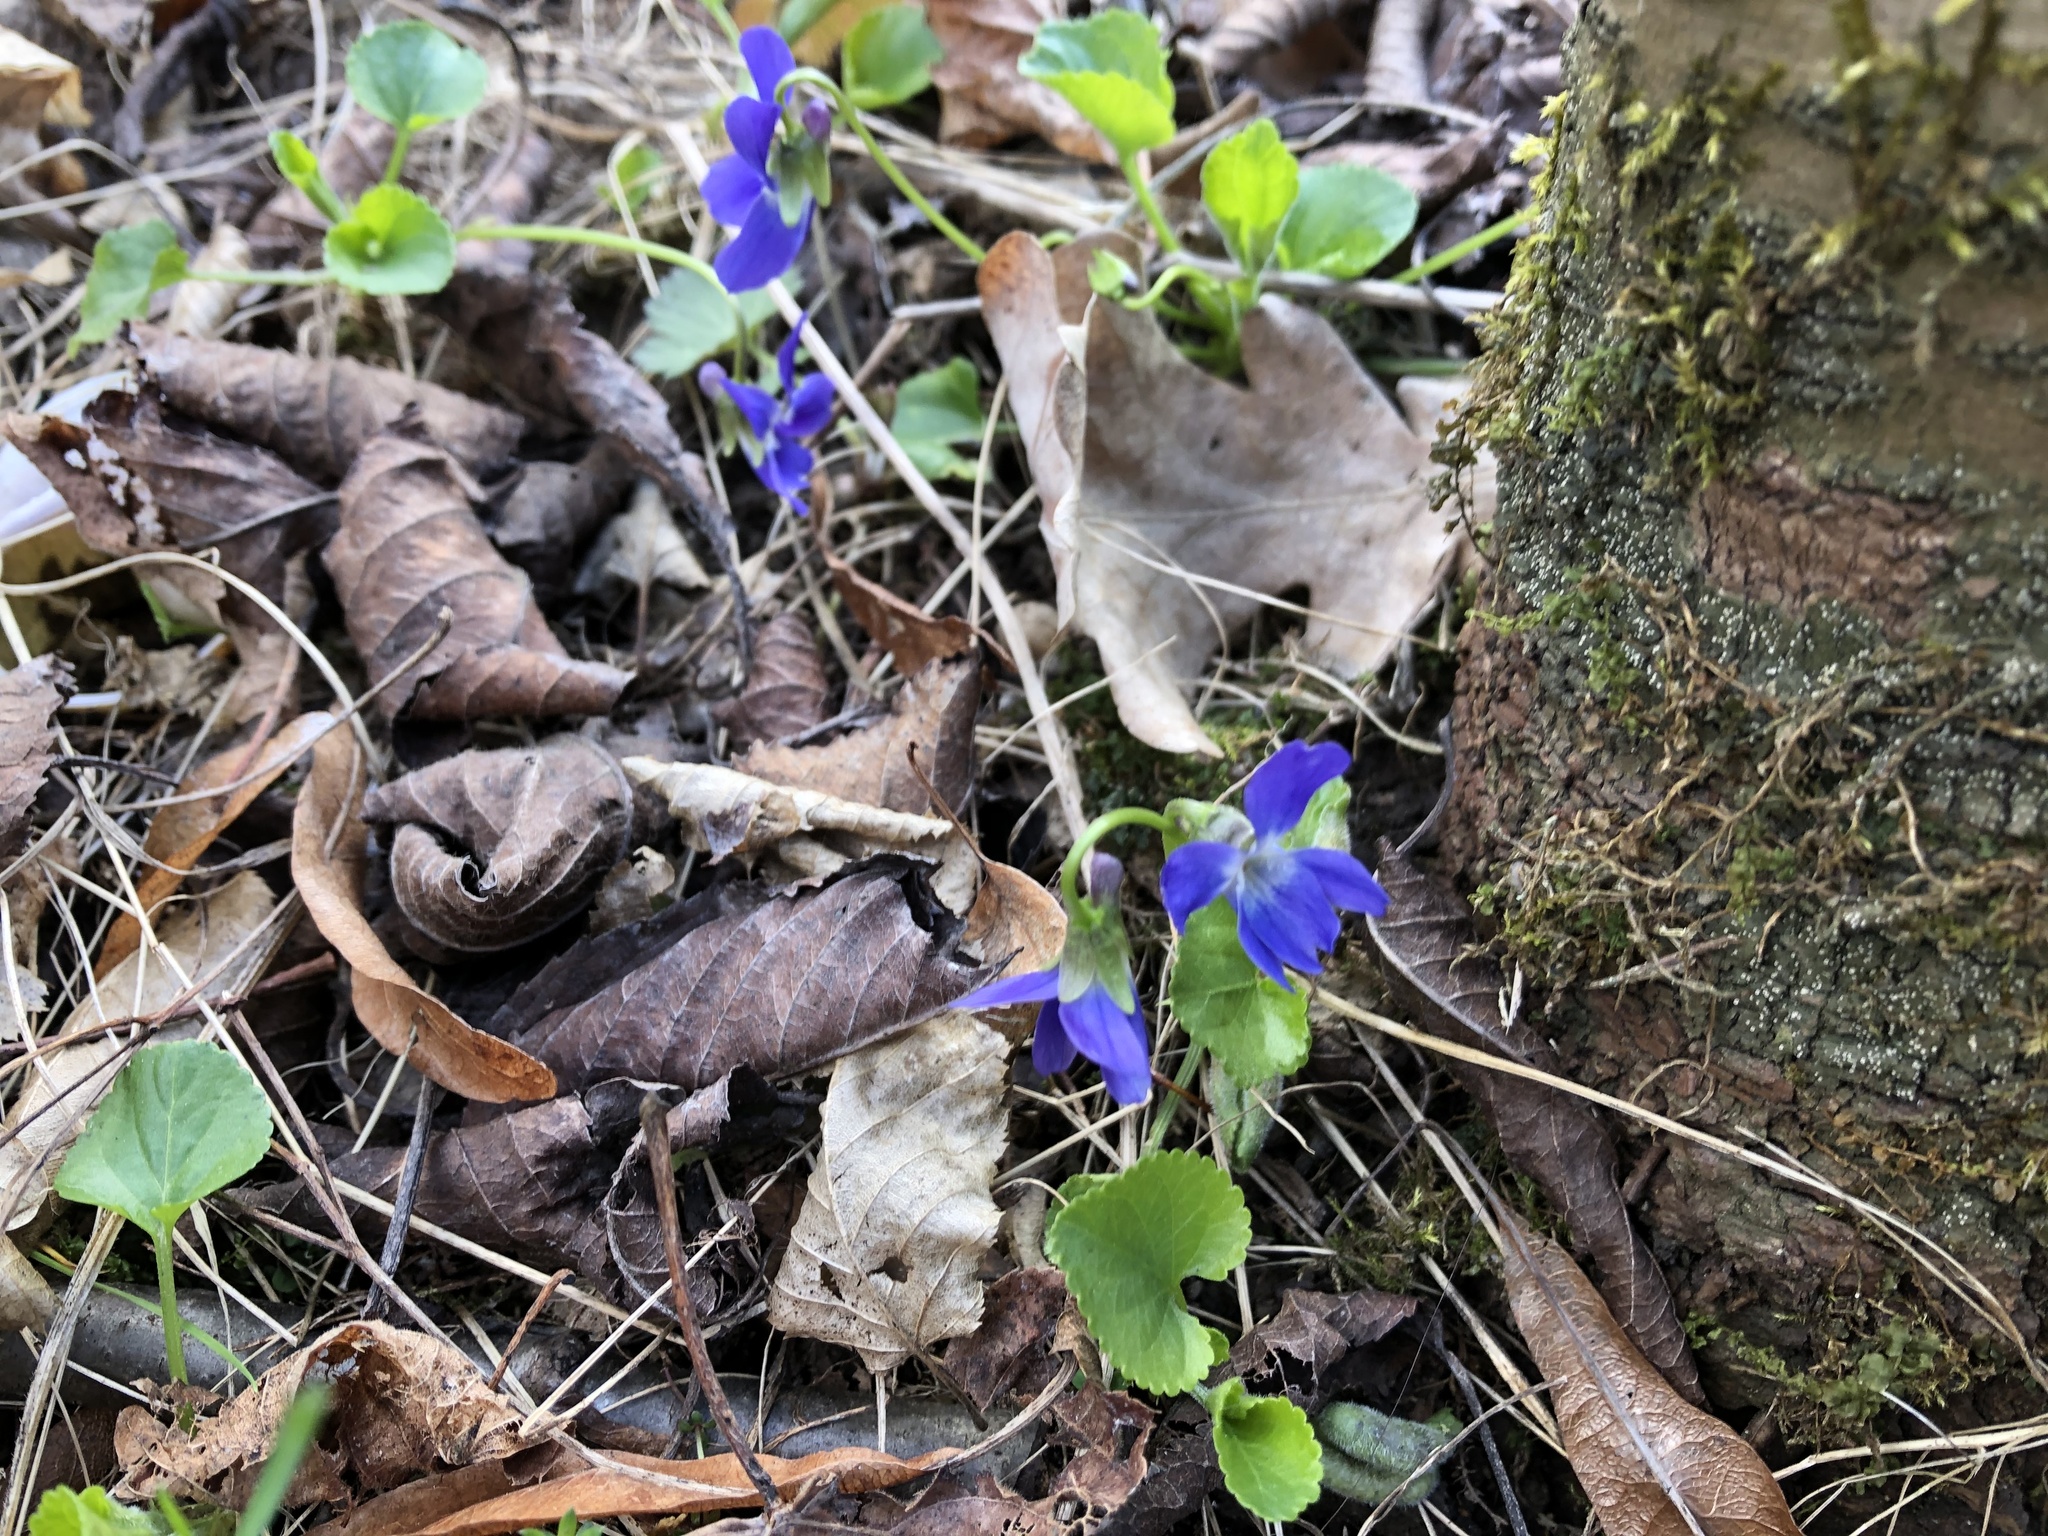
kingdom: Plantae
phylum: Tracheophyta
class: Magnoliopsida
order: Malpighiales
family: Violaceae
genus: Viola
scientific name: Viola odorata
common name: Sweet violet
